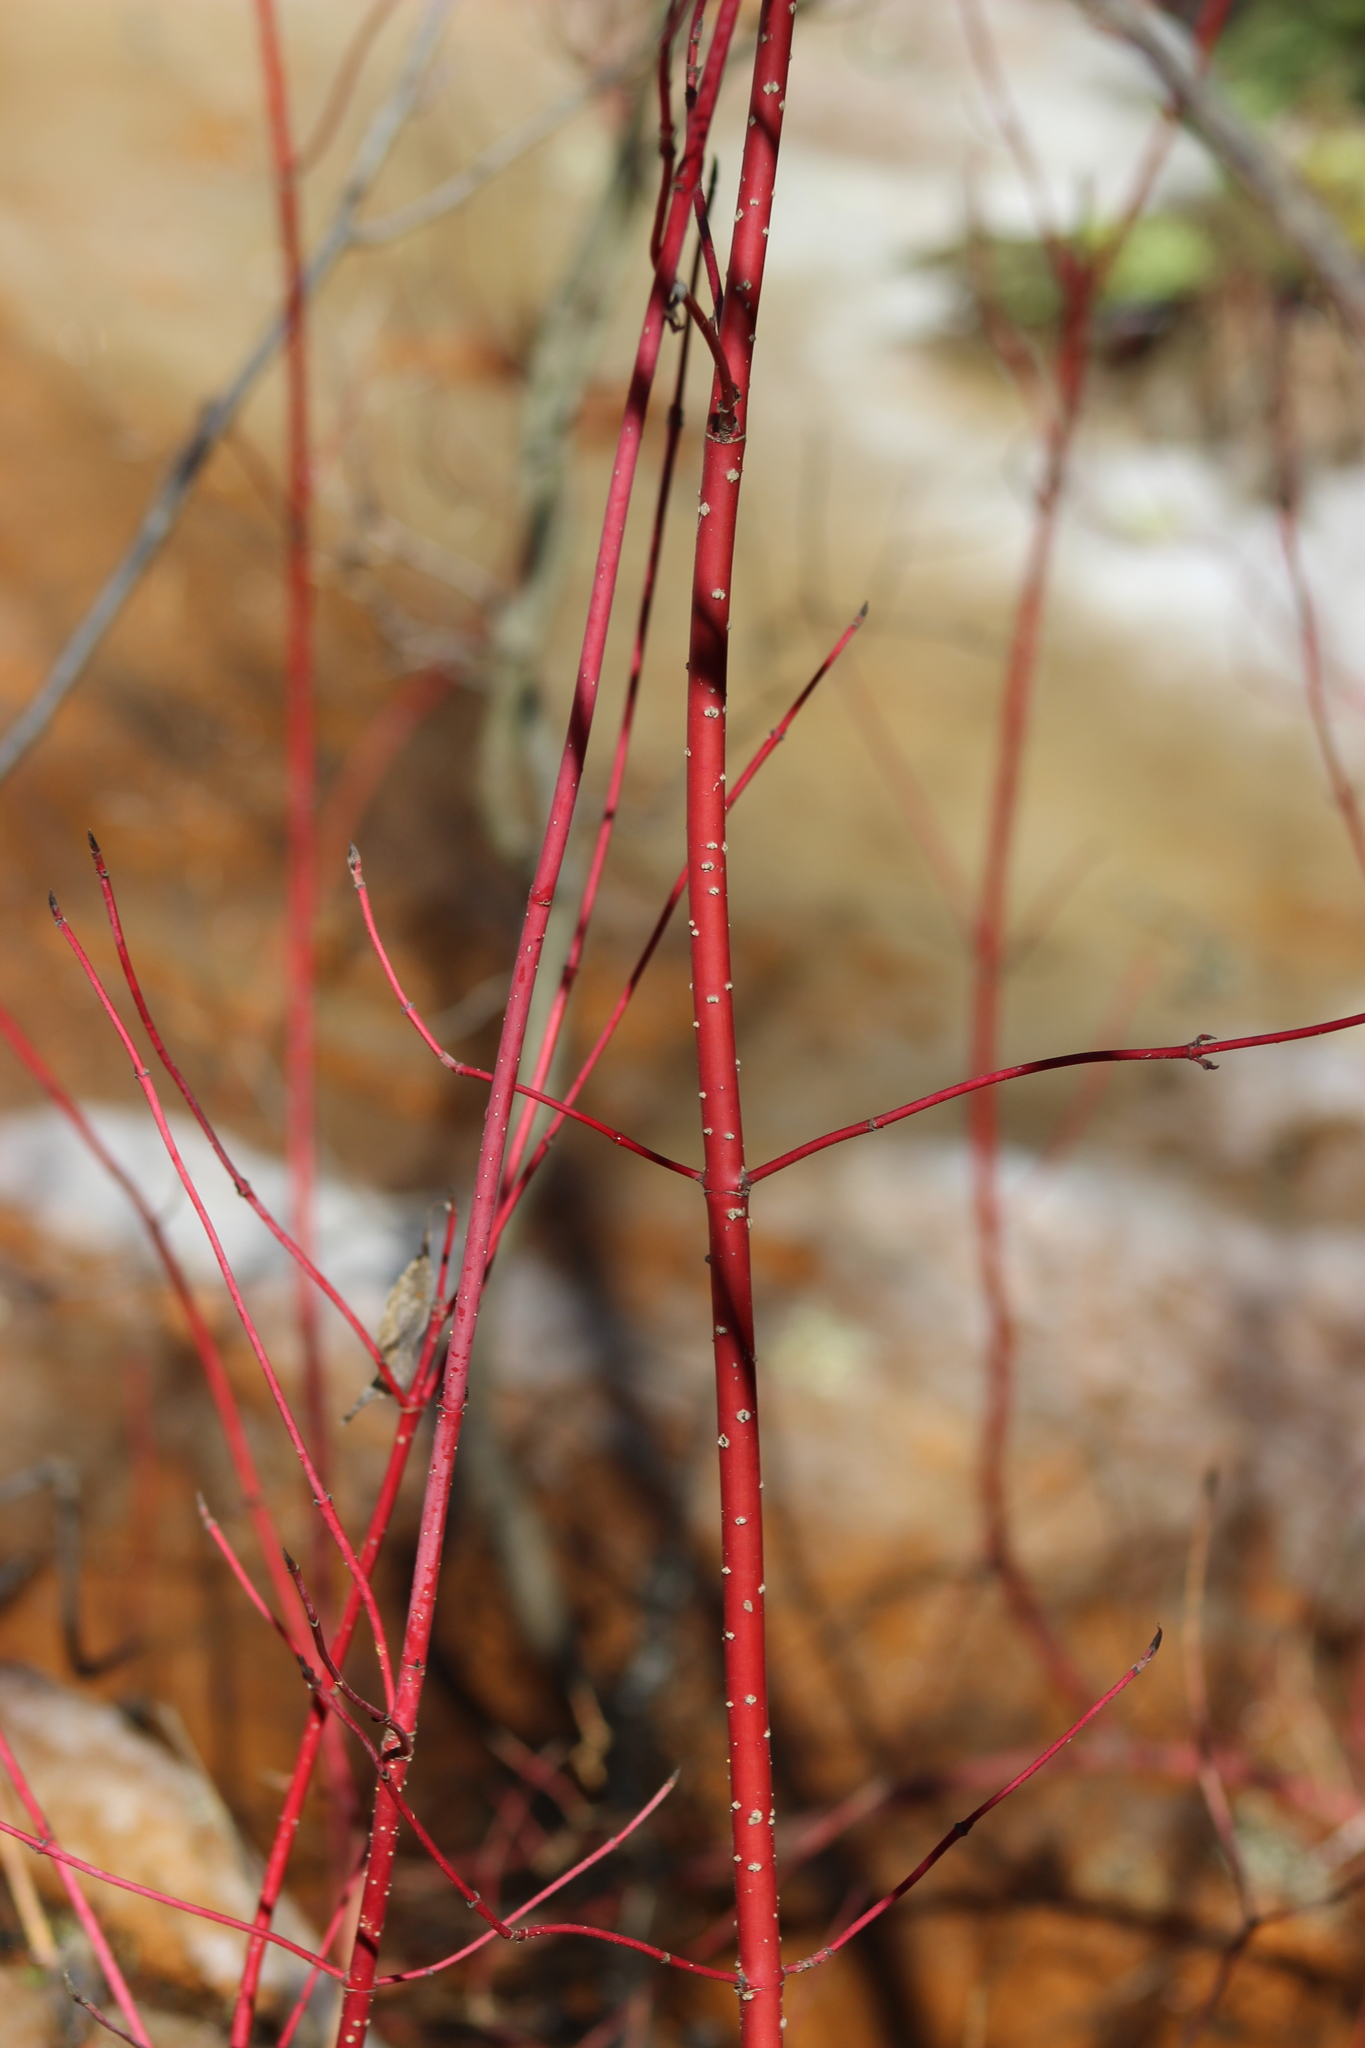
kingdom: Plantae
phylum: Tracheophyta
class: Magnoliopsida
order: Cornales
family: Cornaceae
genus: Cornus
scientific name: Cornus alba
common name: White dogwood
